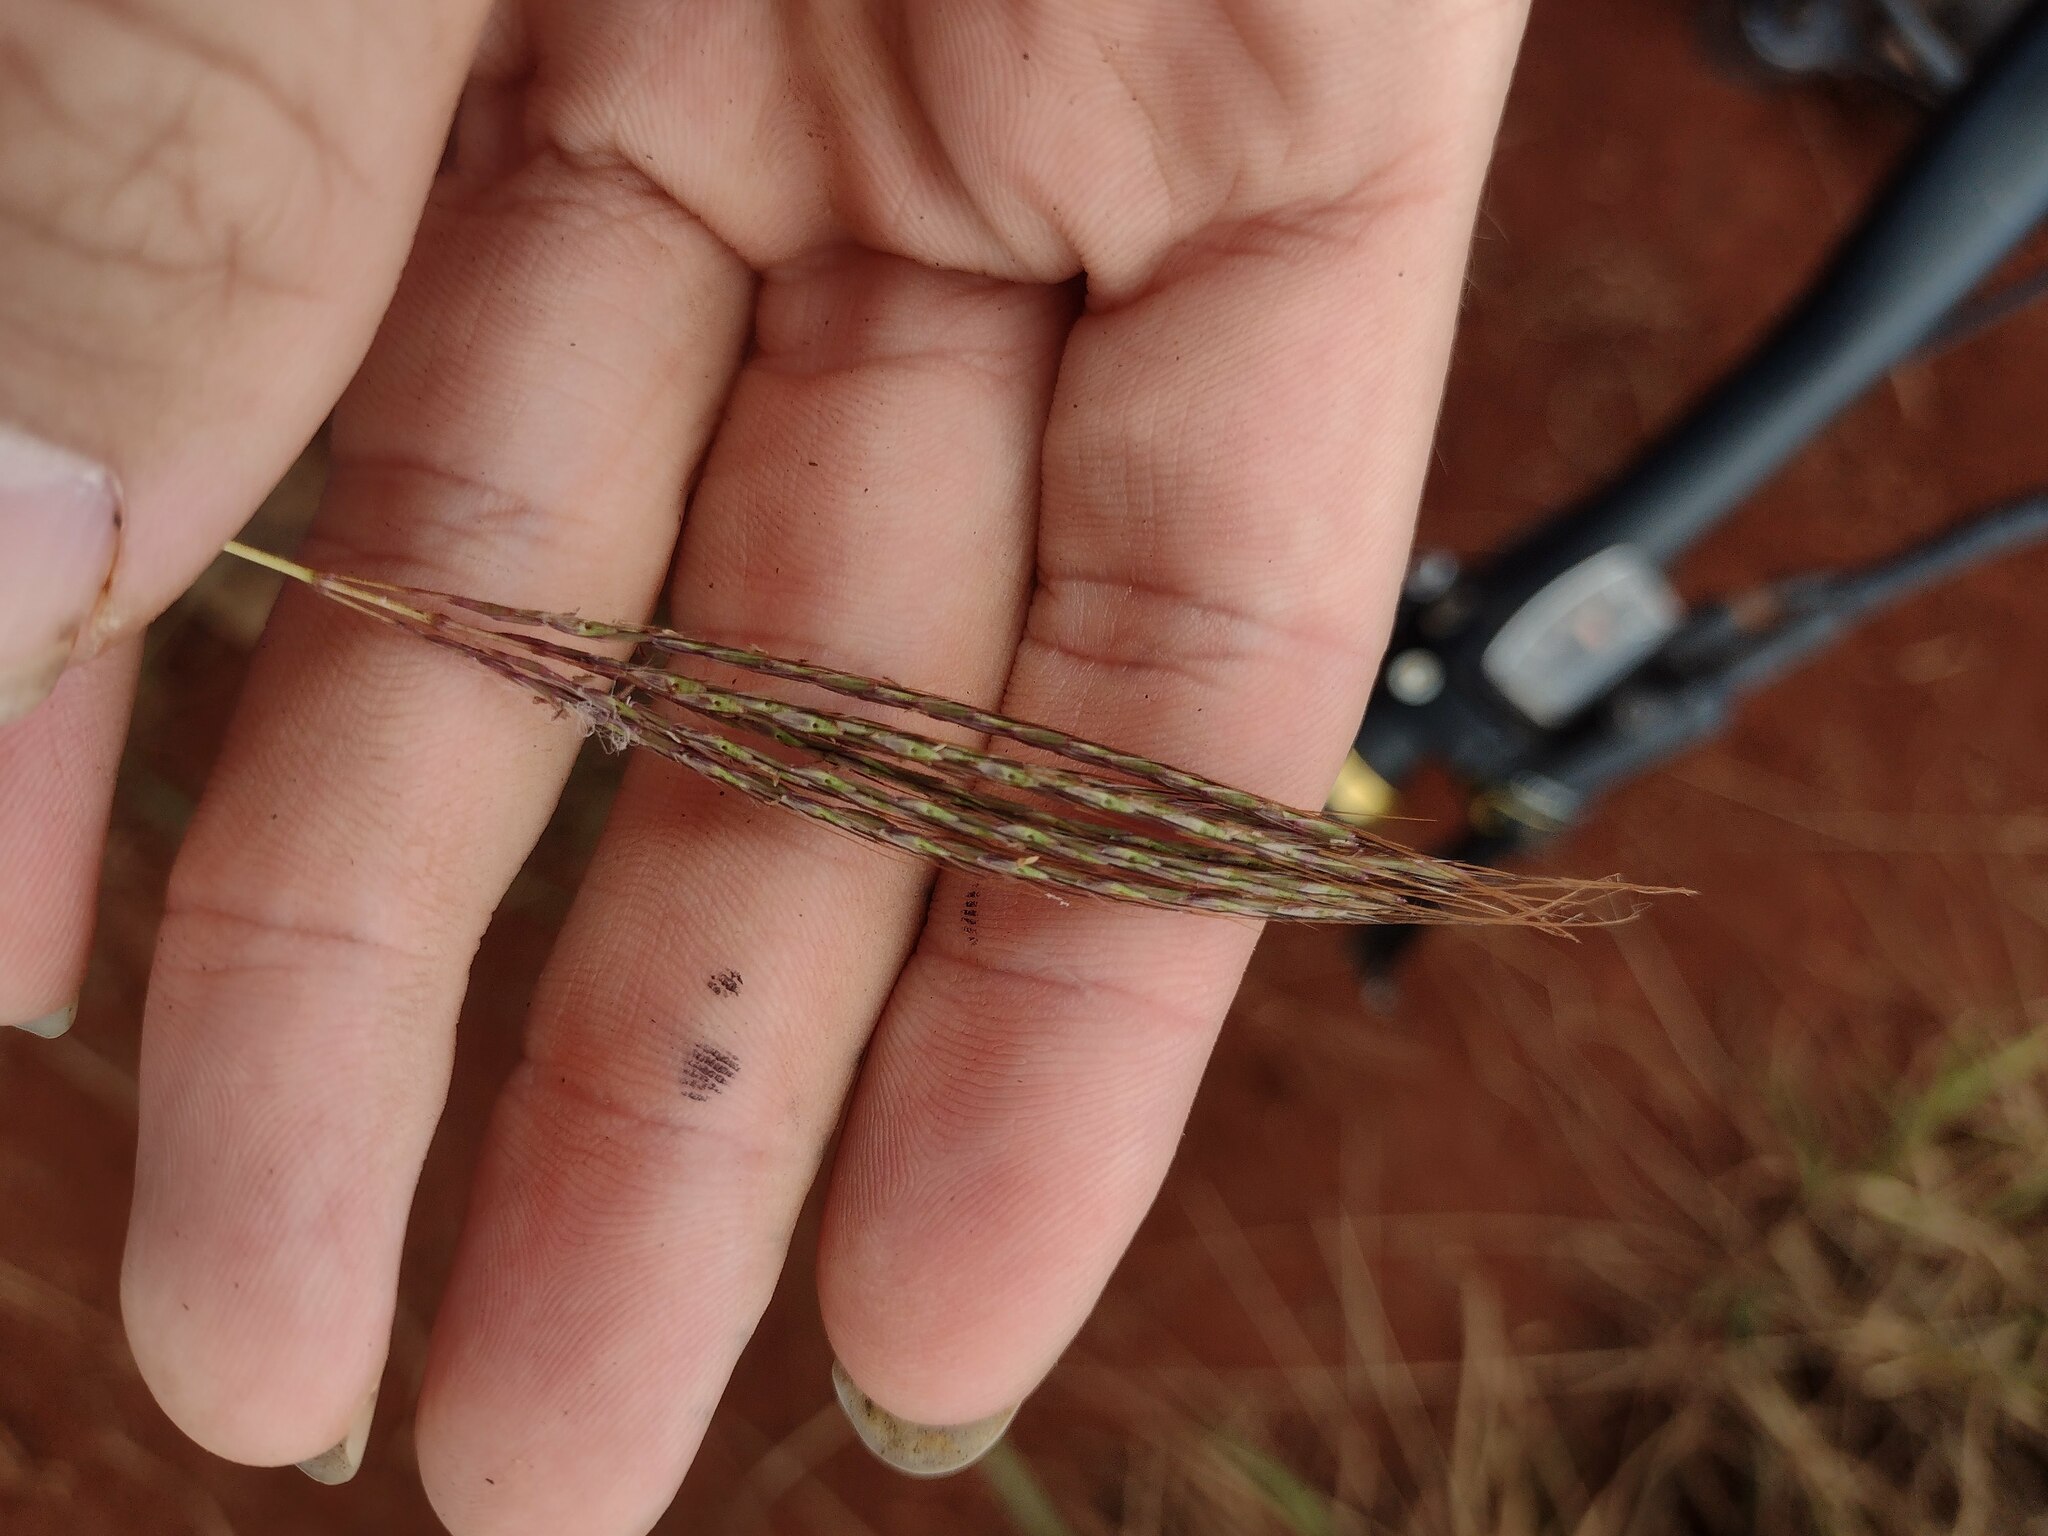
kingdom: Plantae
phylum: Tracheophyta
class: Liliopsida
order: Poales
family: Poaceae
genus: Bothriochloa
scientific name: Bothriochloa pertusa
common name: Pitted beardgrass
